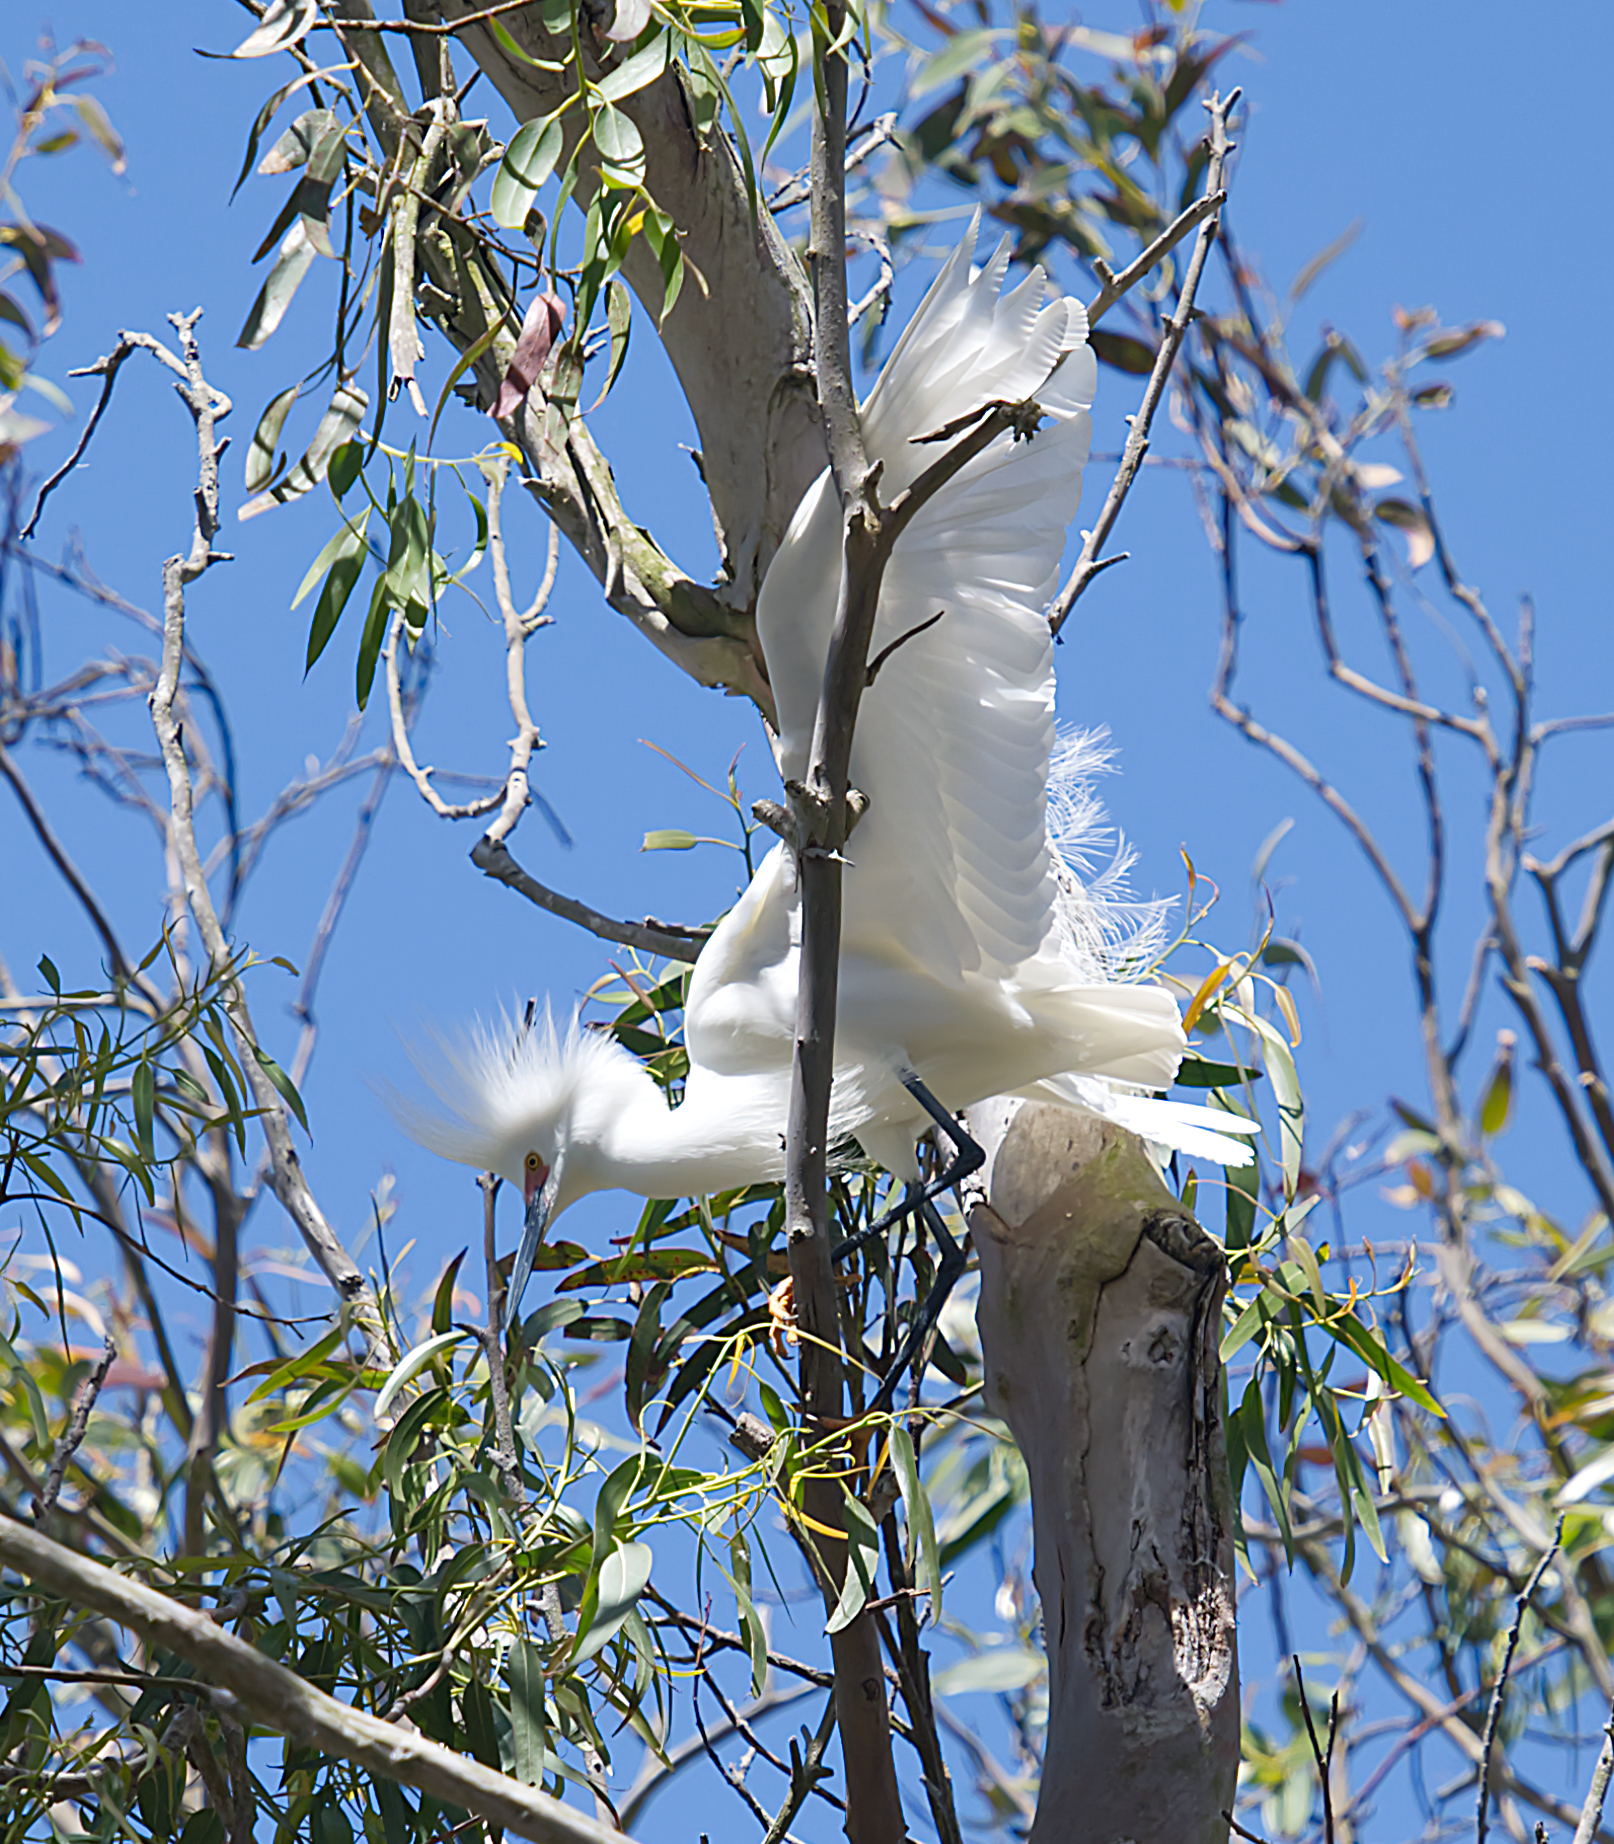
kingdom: Animalia
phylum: Chordata
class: Aves
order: Pelecaniformes
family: Ardeidae
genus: Egretta
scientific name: Egretta thula
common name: Snowy egret
